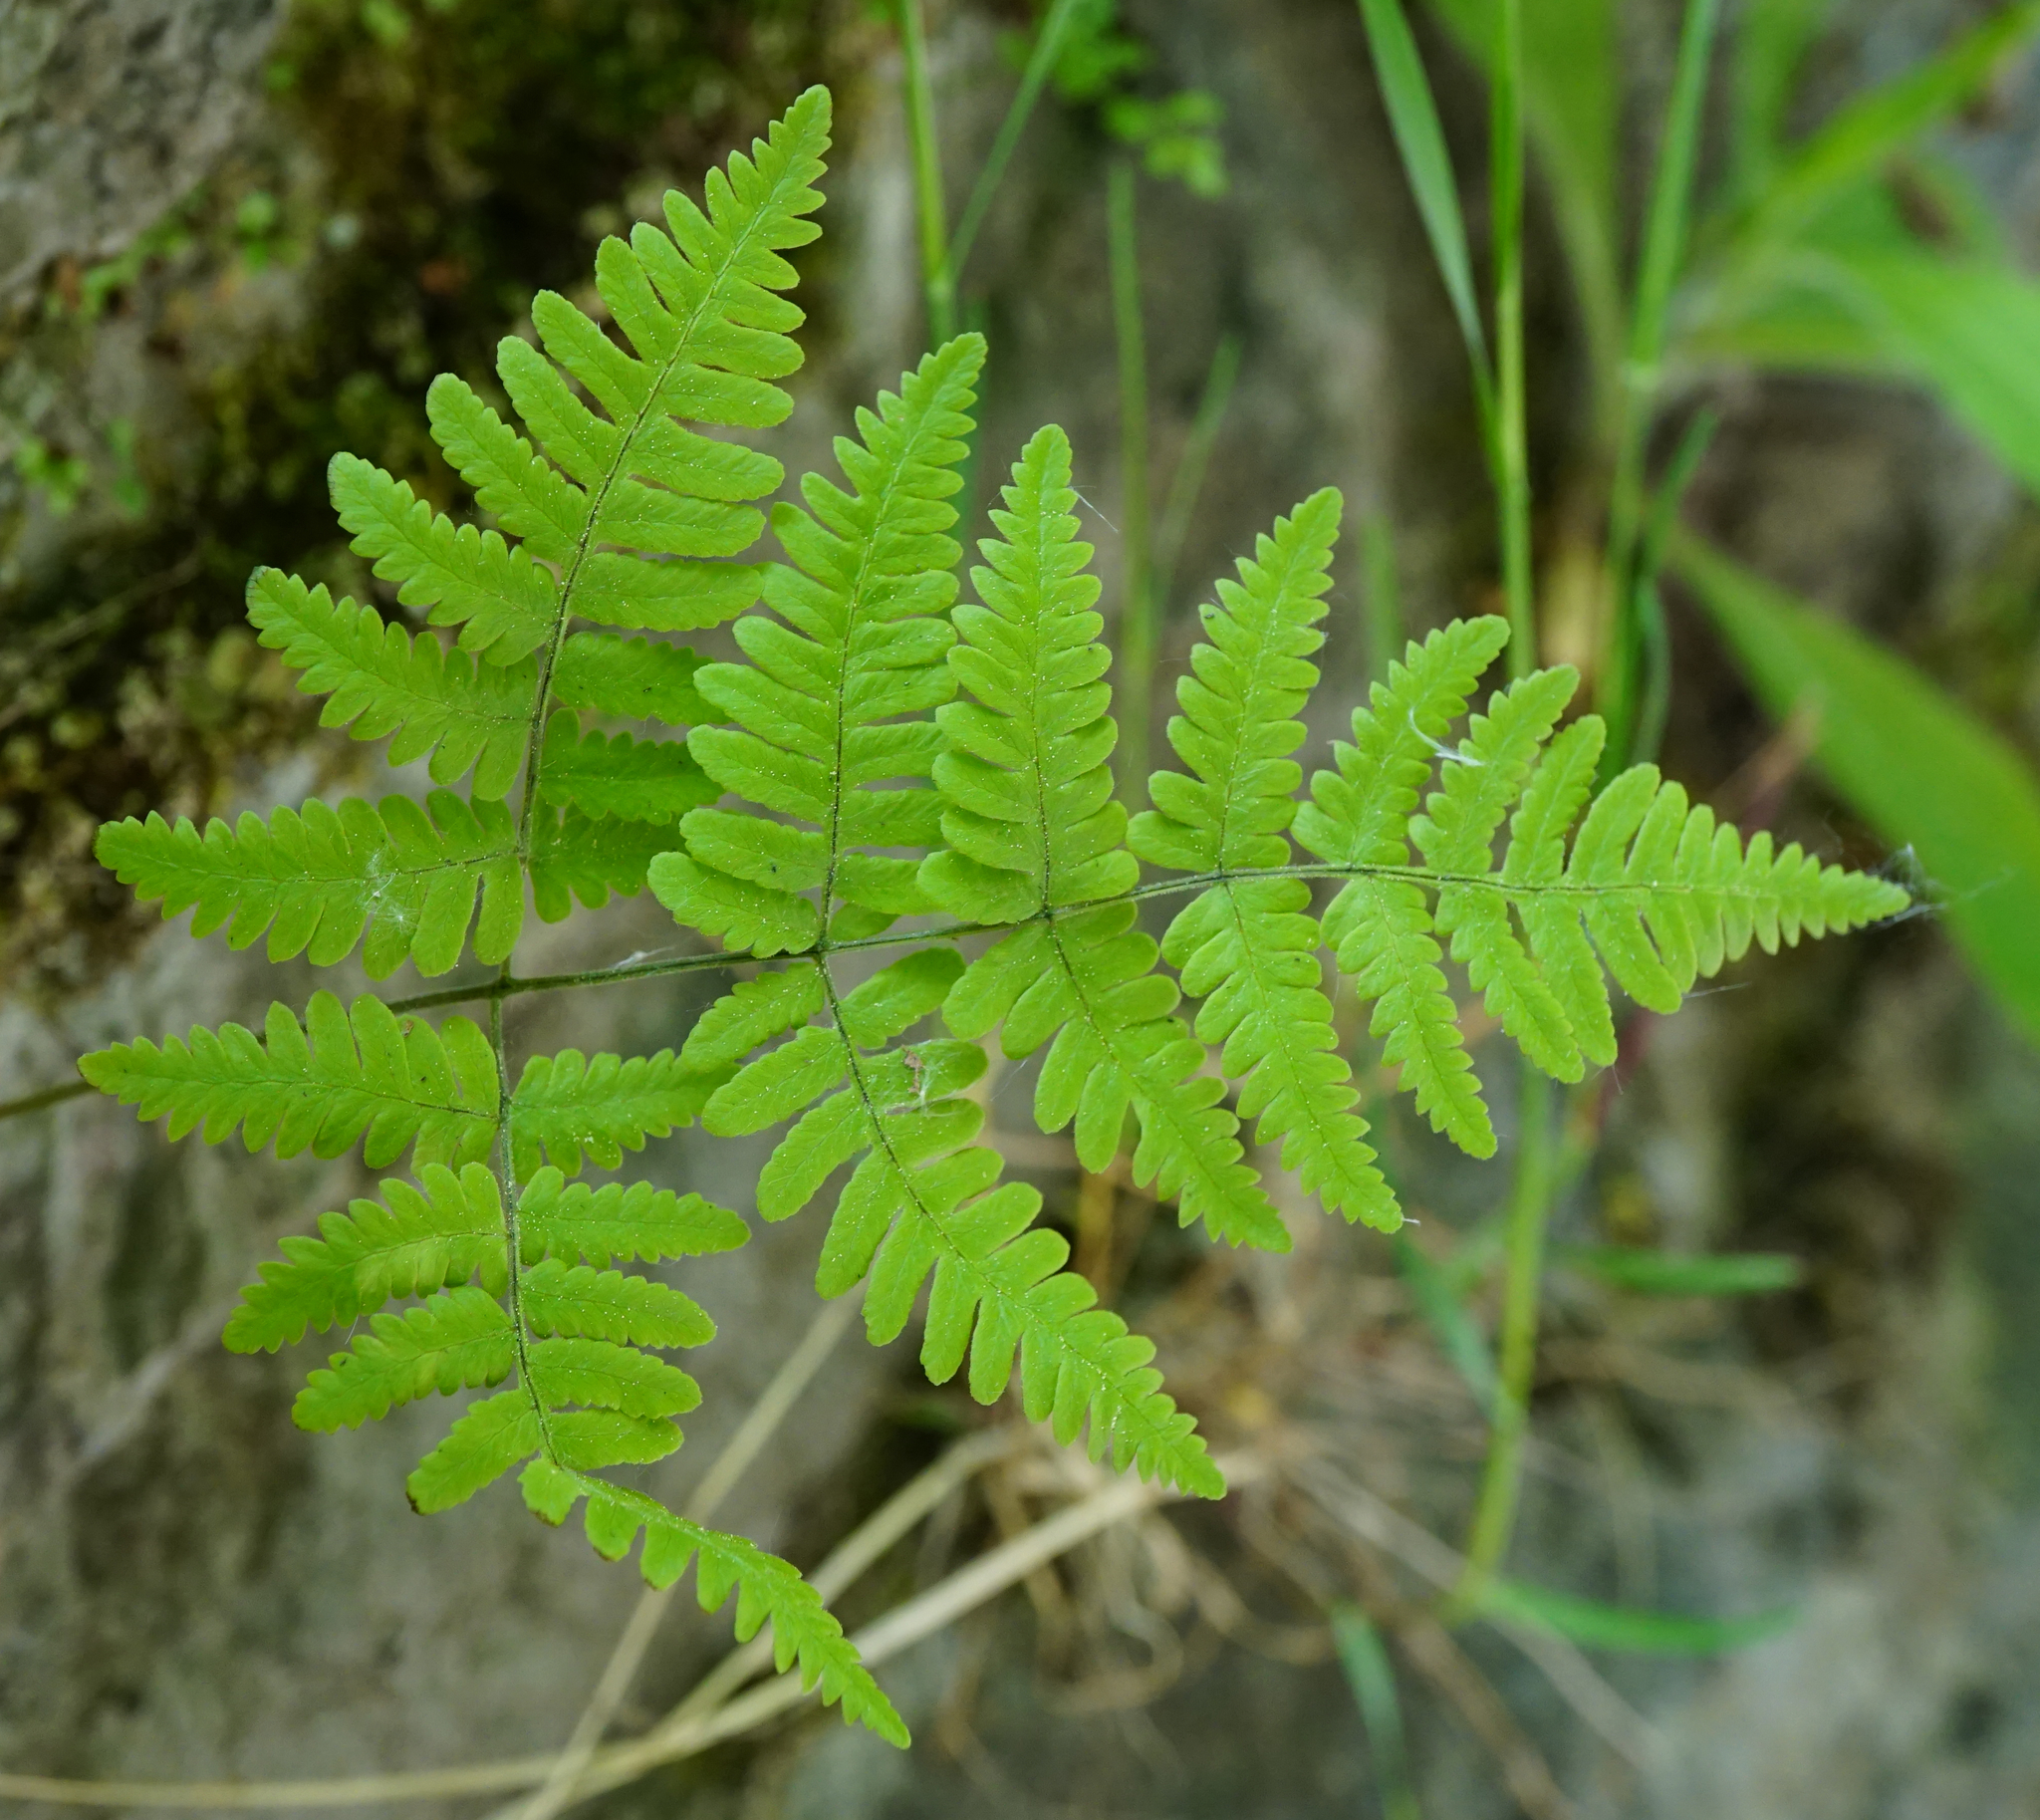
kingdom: Plantae
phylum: Tracheophyta
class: Polypodiopsida
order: Polypodiales
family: Cystopteridaceae
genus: Gymnocarpium
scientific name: Gymnocarpium robertianum
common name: Limestone fern
